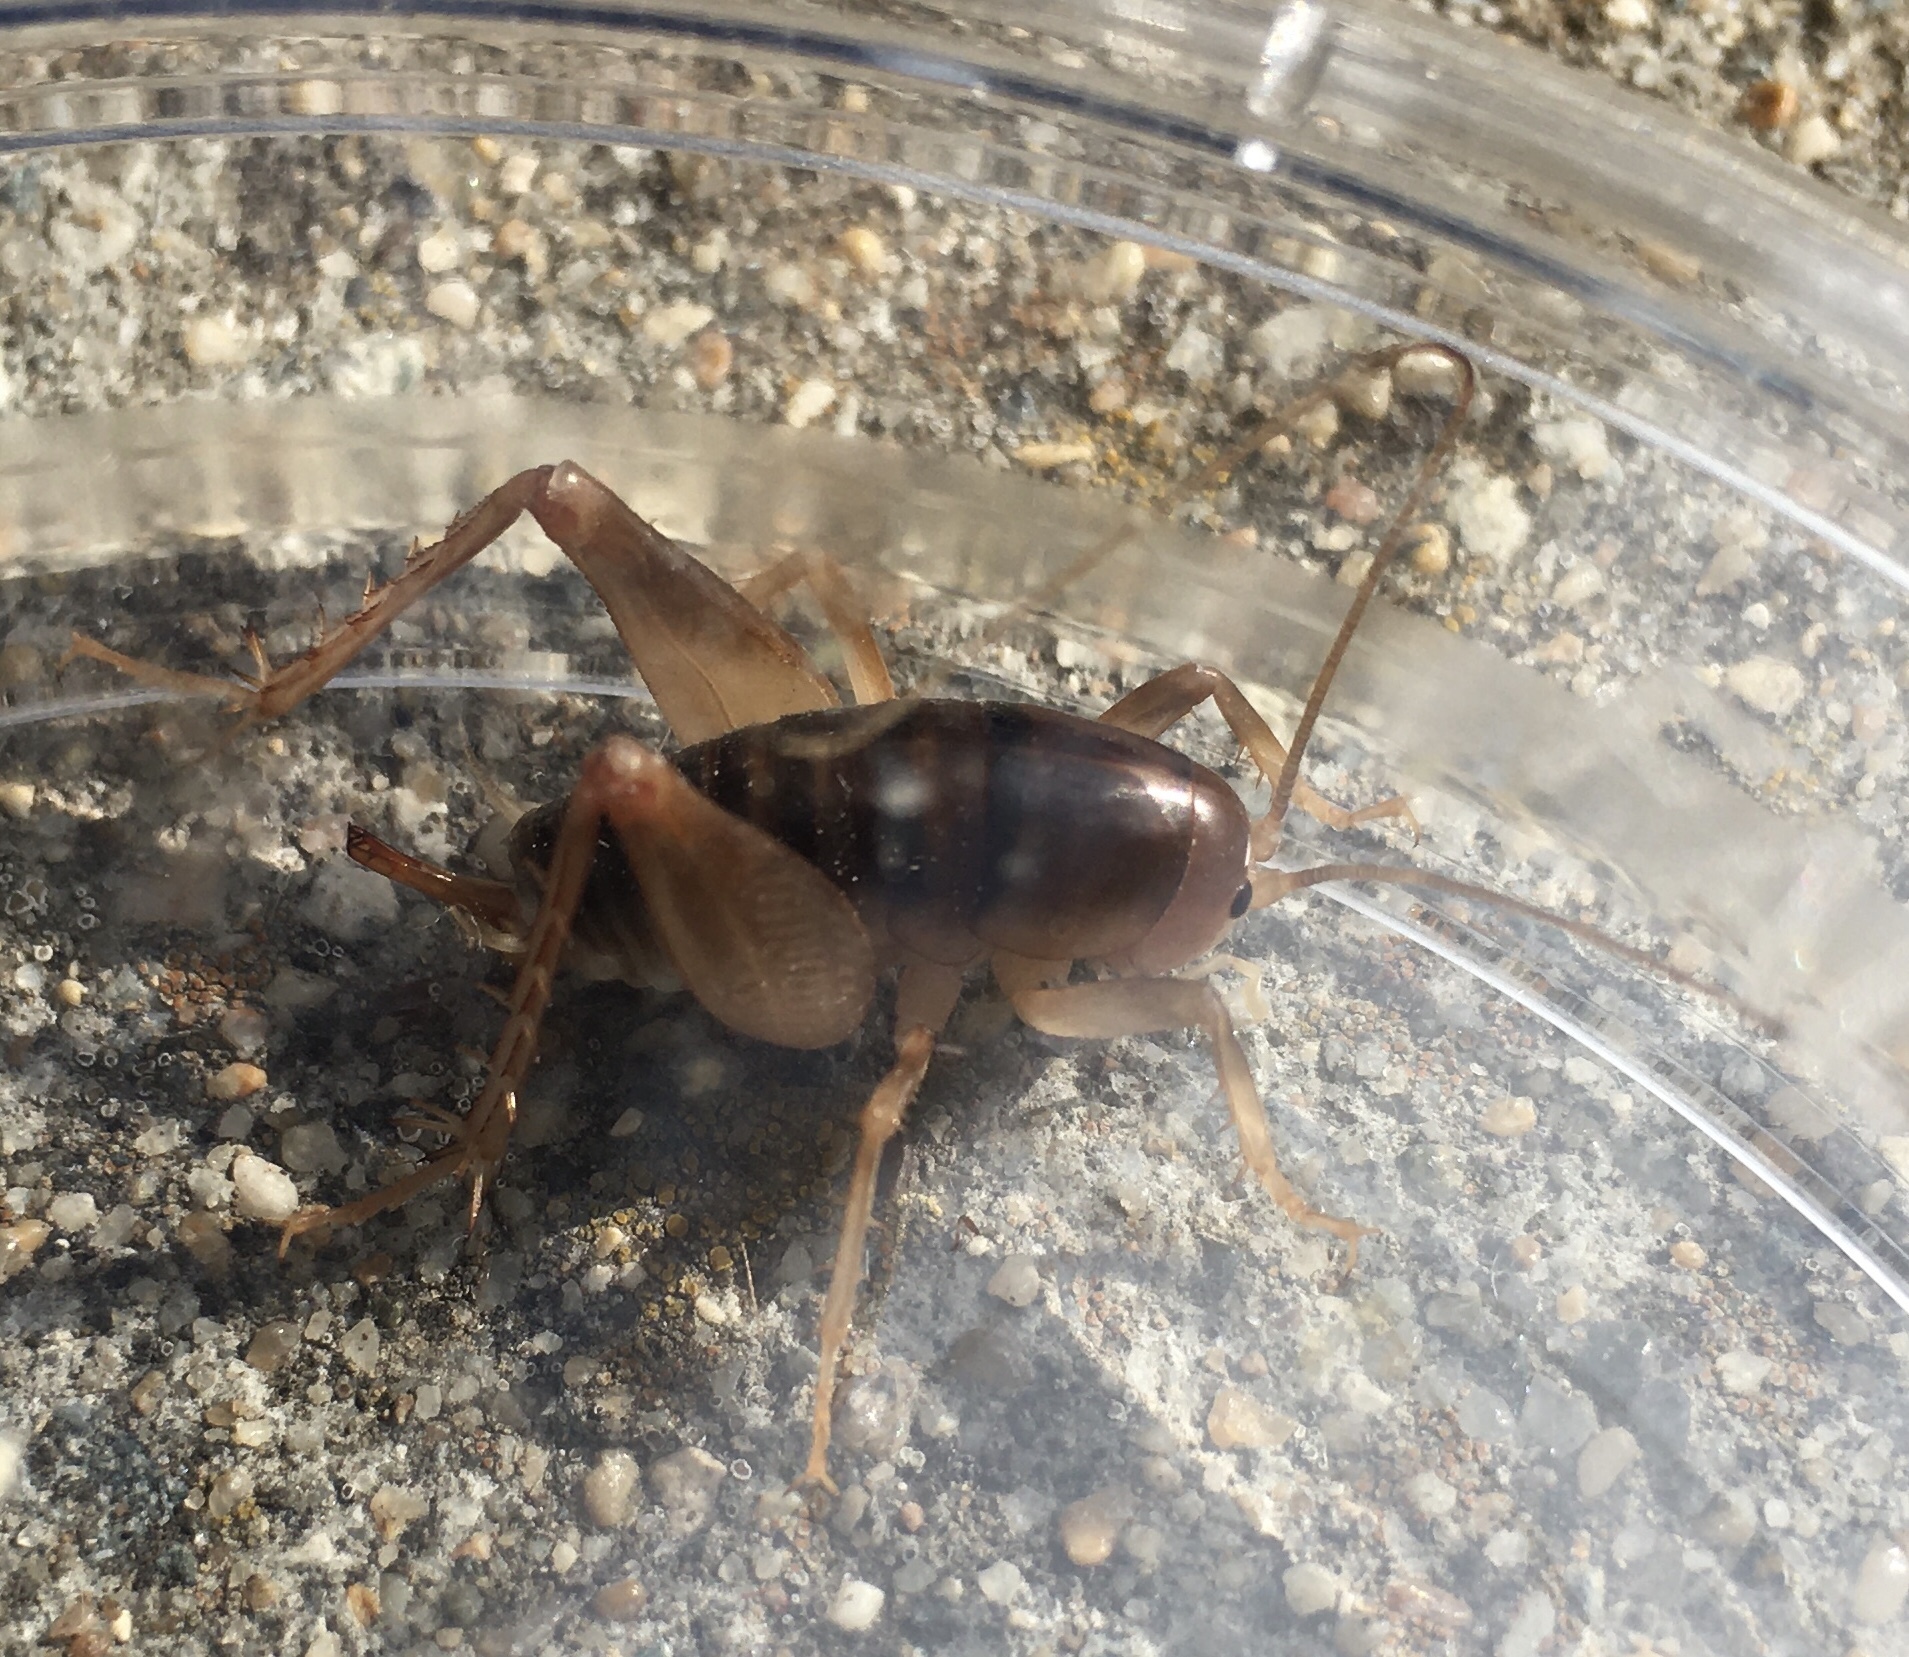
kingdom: Animalia
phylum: Arthropoda
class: Insecta
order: Orthoptera
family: Rhaphidophoridae
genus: Ceuthophilus
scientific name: Ceuthophilus californianus
